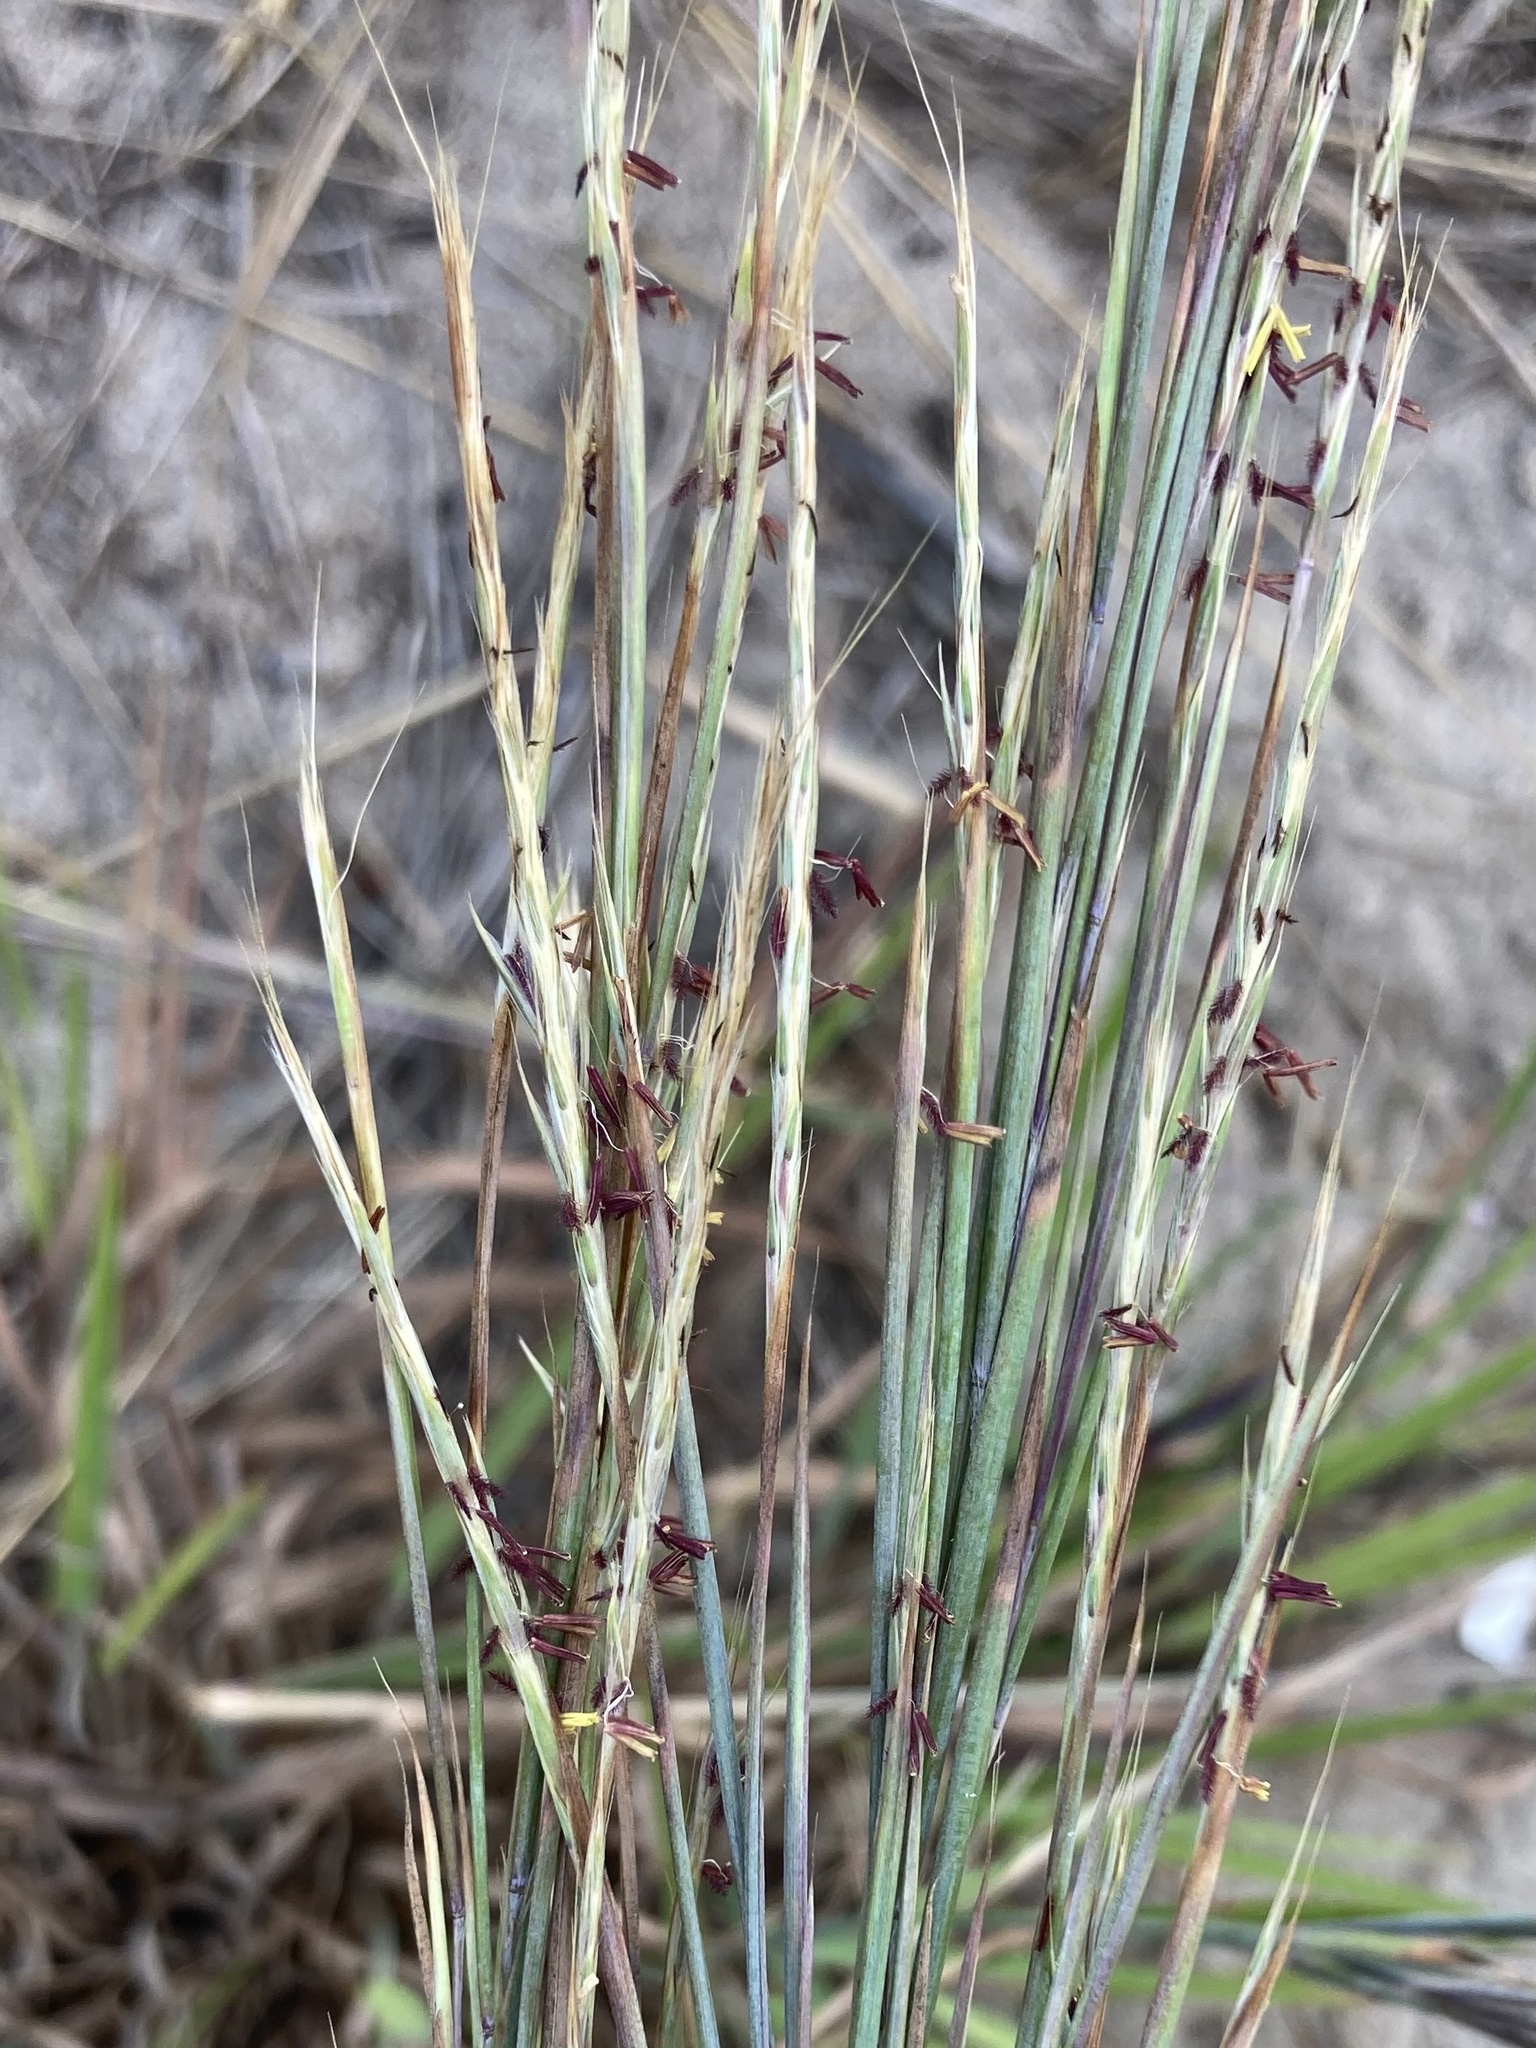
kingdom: Plantae
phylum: Tracheophyta
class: Liliopsida
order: Poales
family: Poaceae
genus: Schizachyrium
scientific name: Schizachyrium scoparium
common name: Little bluestem
